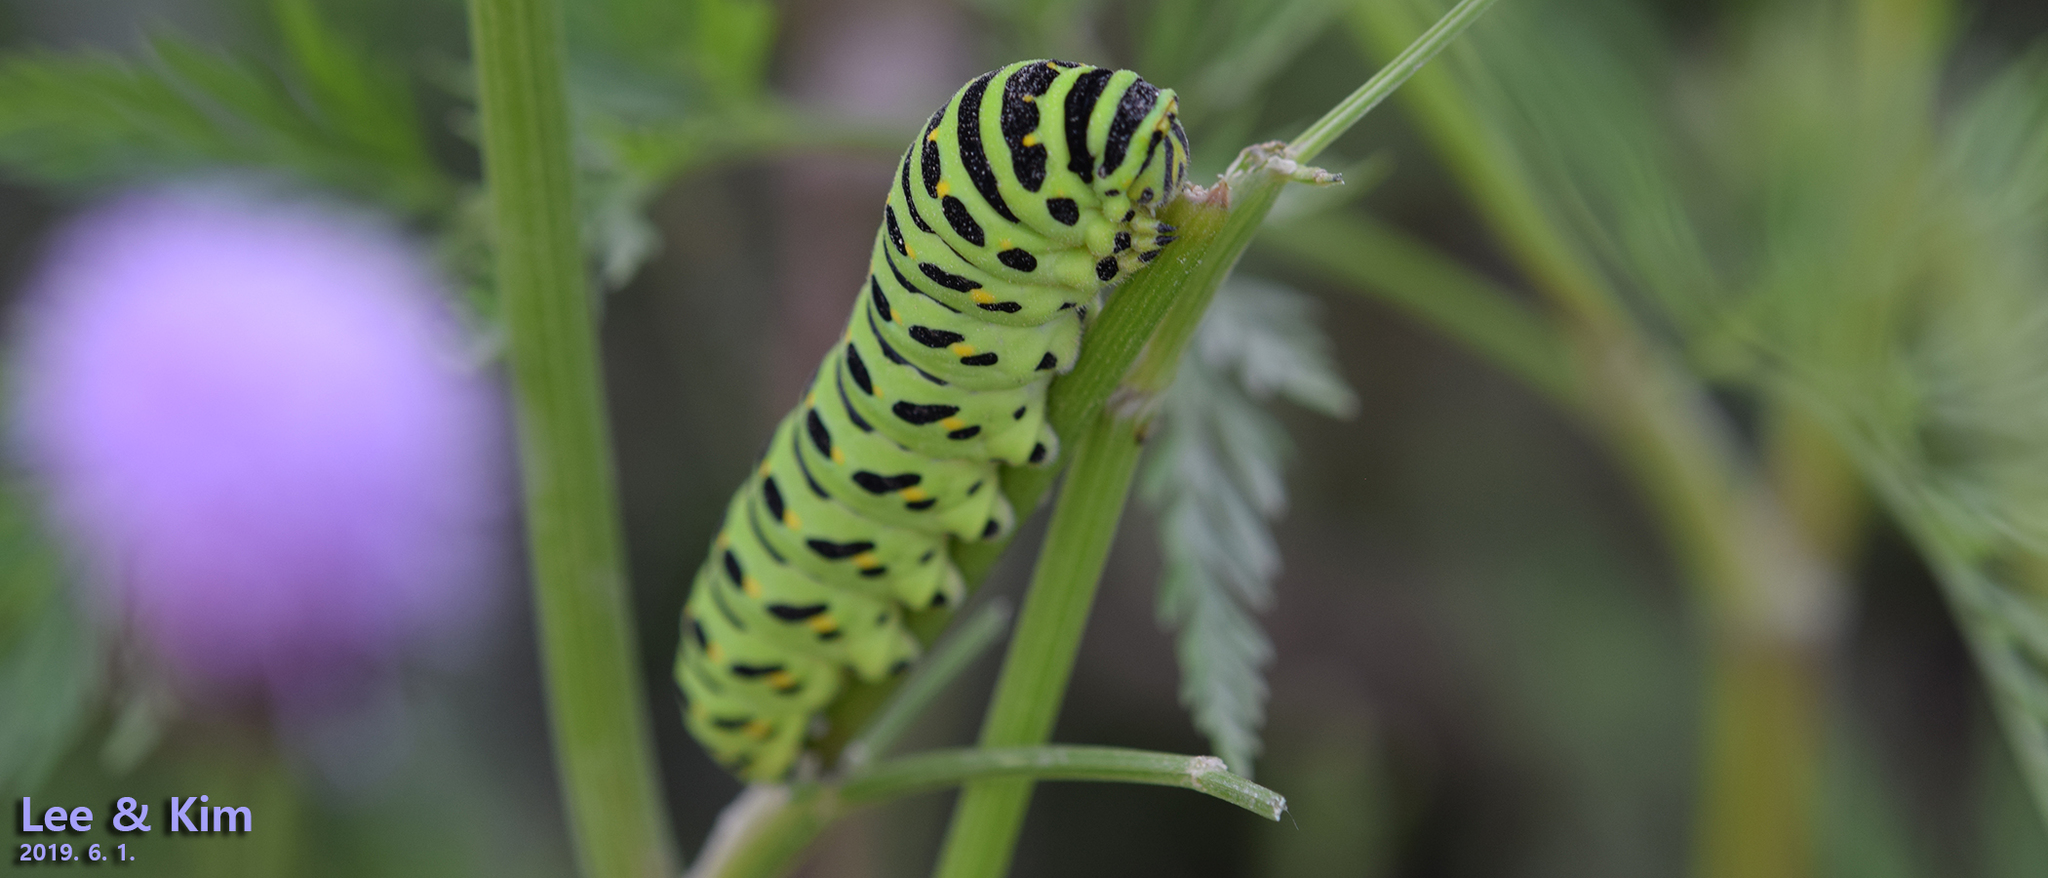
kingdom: Animalia
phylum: Arthropoda
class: Insecta
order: Lepidoptera
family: Papilionidae
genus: Papilio
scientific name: Papilio machaon
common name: Swallowtail
